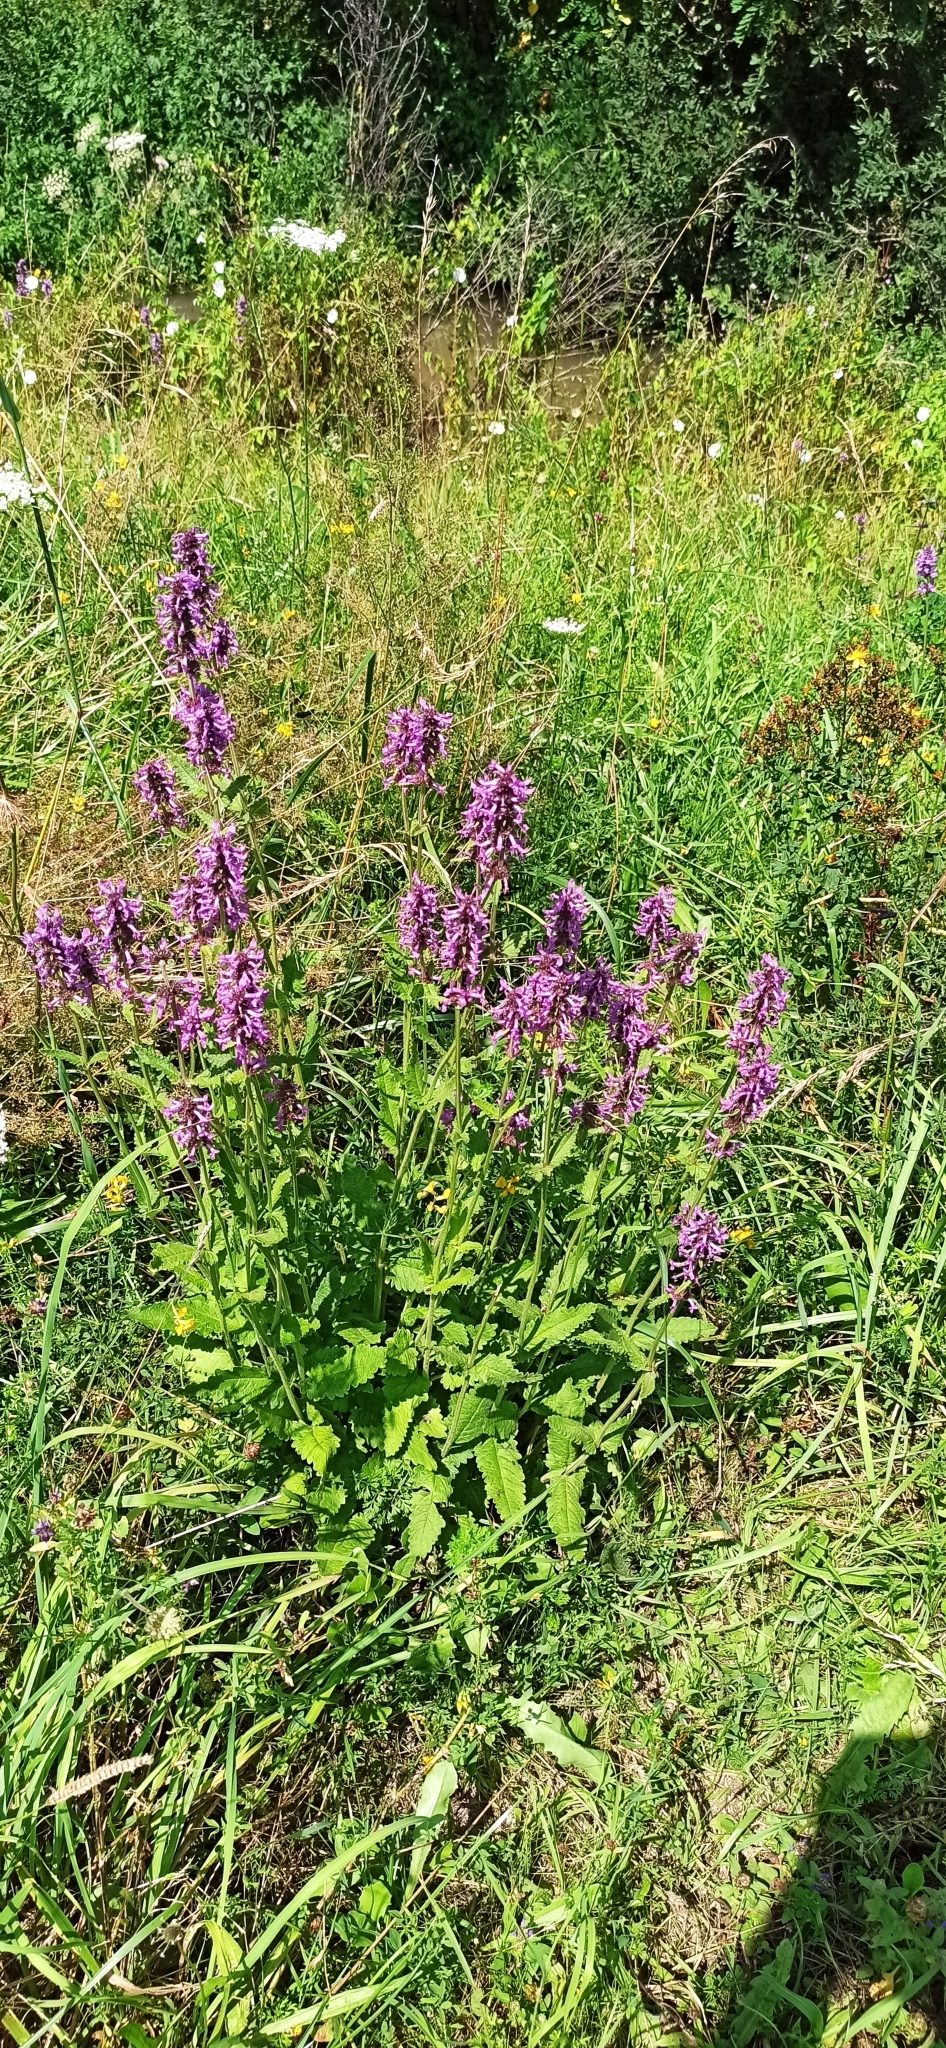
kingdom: Plantae
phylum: Tracheophyta
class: Magnoliopsida
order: Lamiales
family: Lamiaceae
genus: Betonica
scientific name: Betonica officinalis
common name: Bishop's-wort
